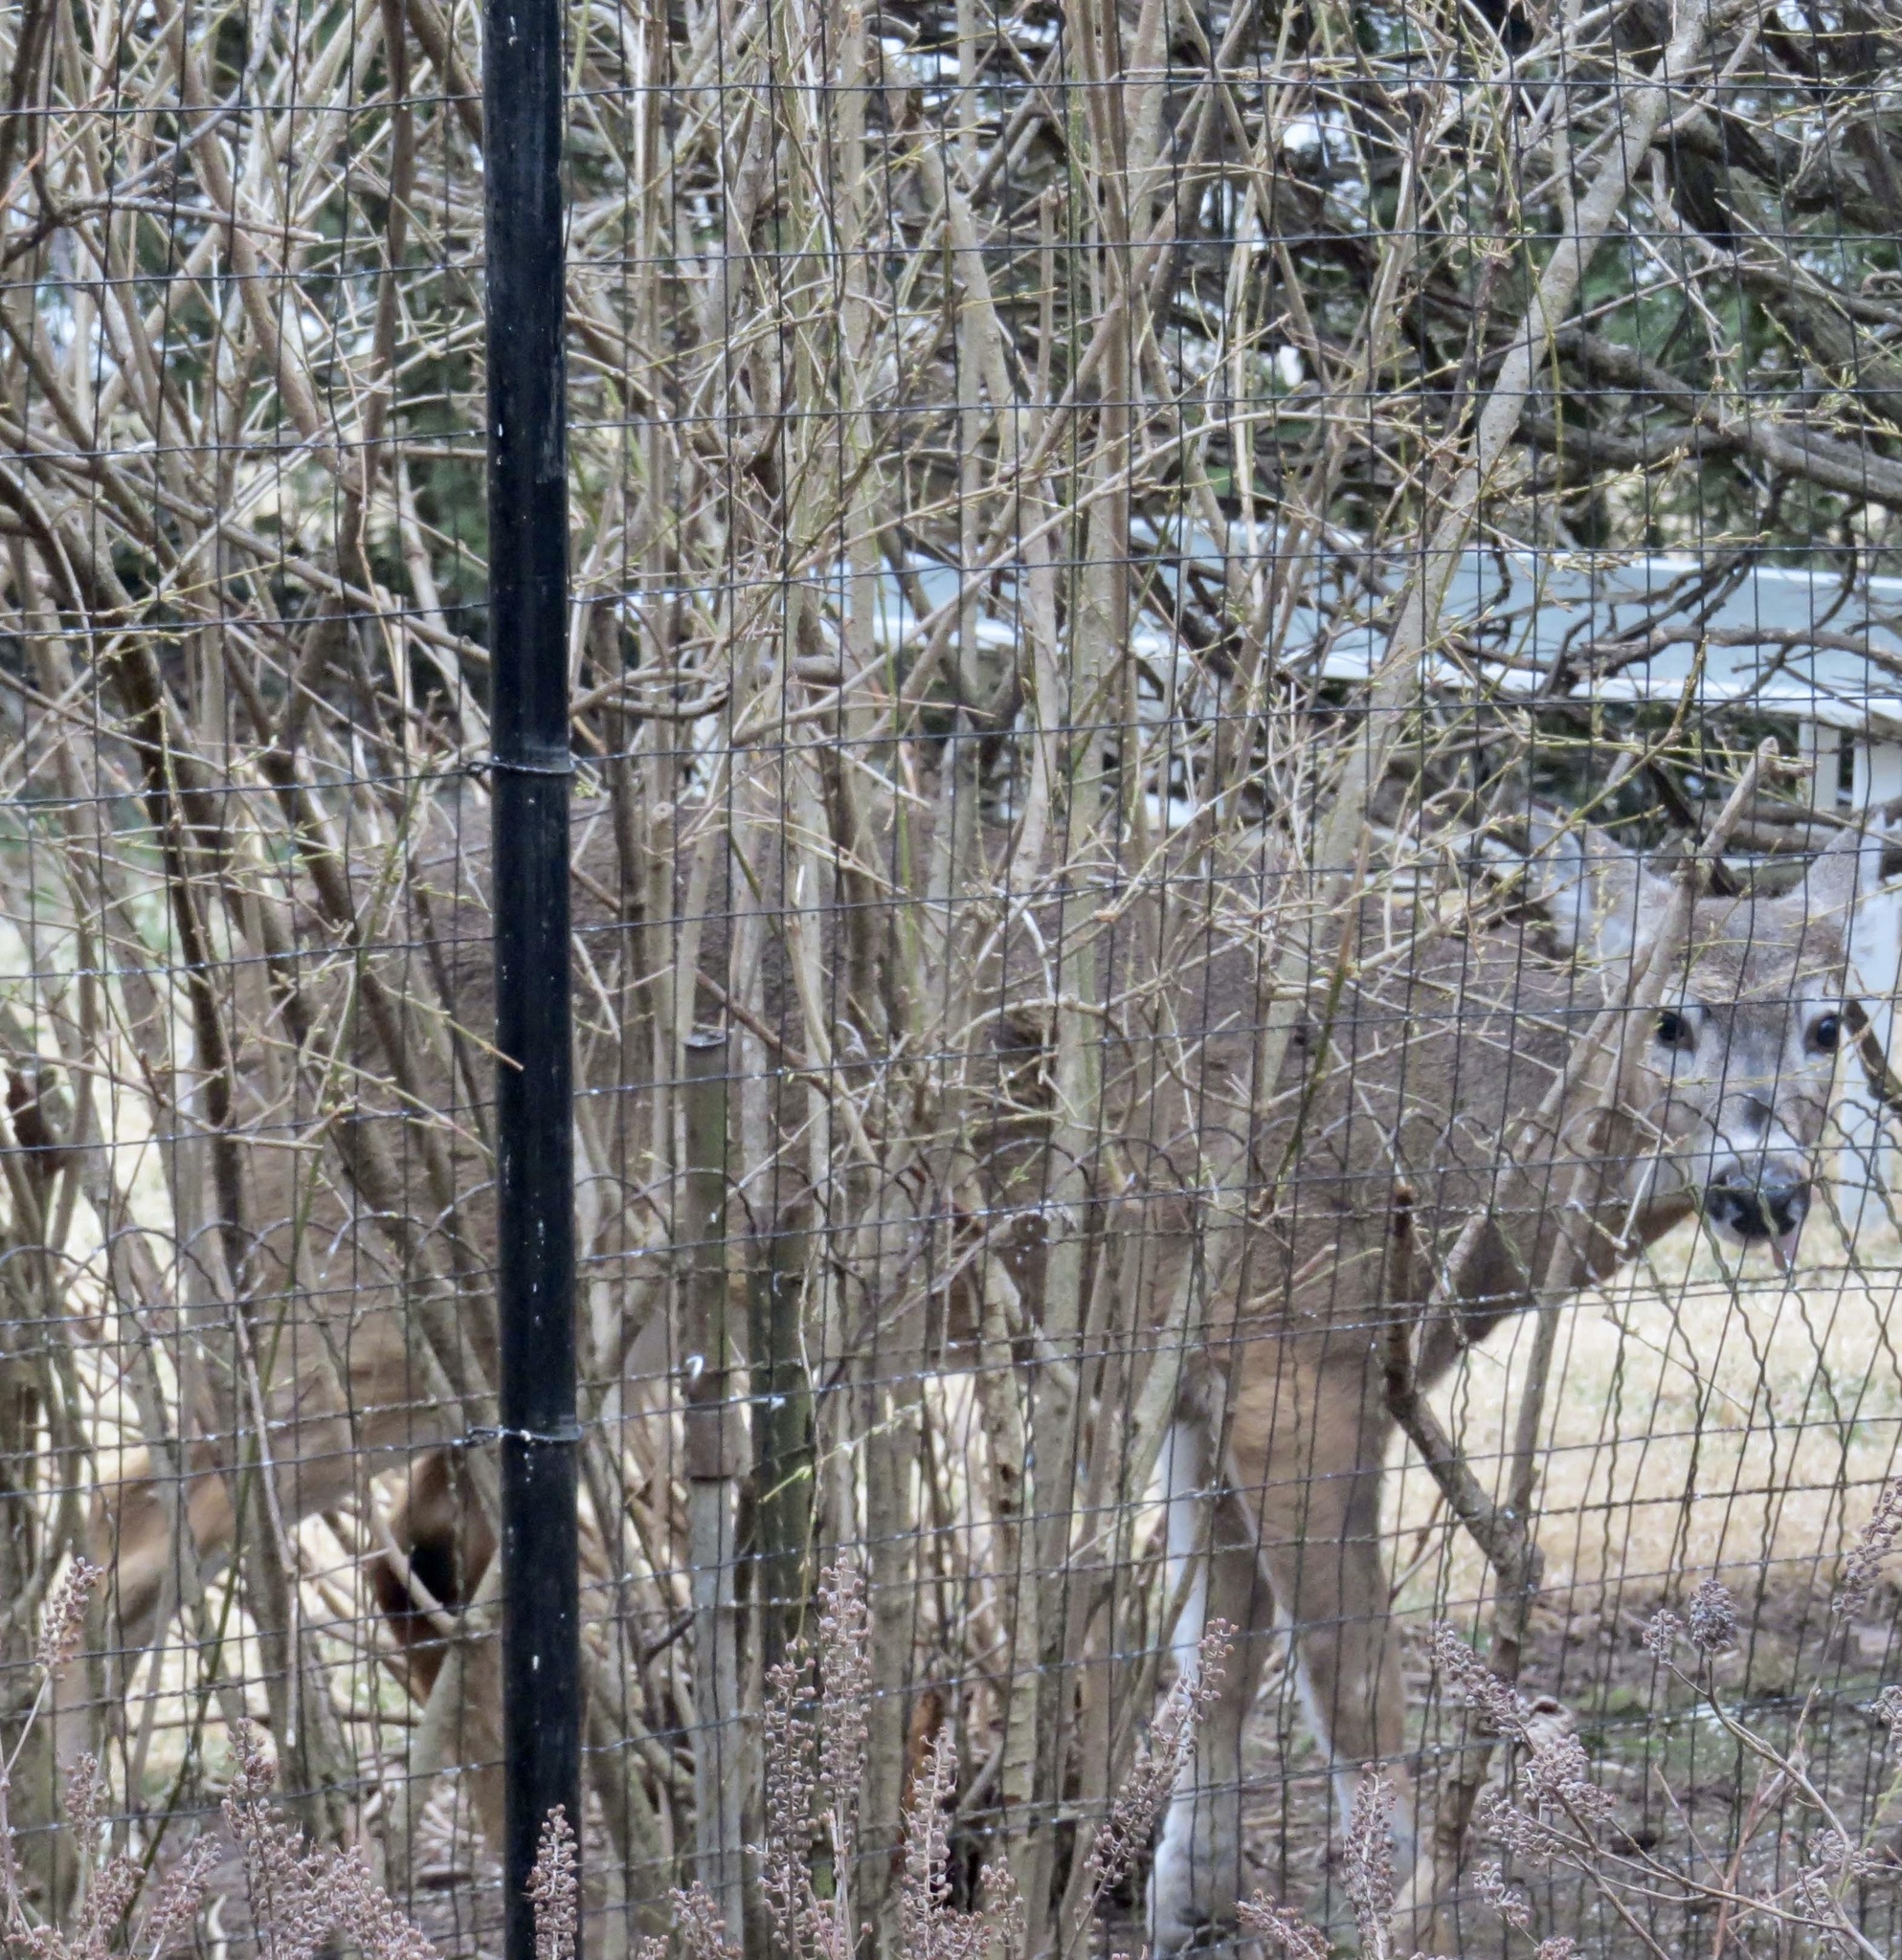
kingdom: Animalia
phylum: Chordata
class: Mammalia
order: Artiodactyla
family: Cervidae
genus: Odocoileus
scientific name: Odocoileus virginianus
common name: White-tailed deer
